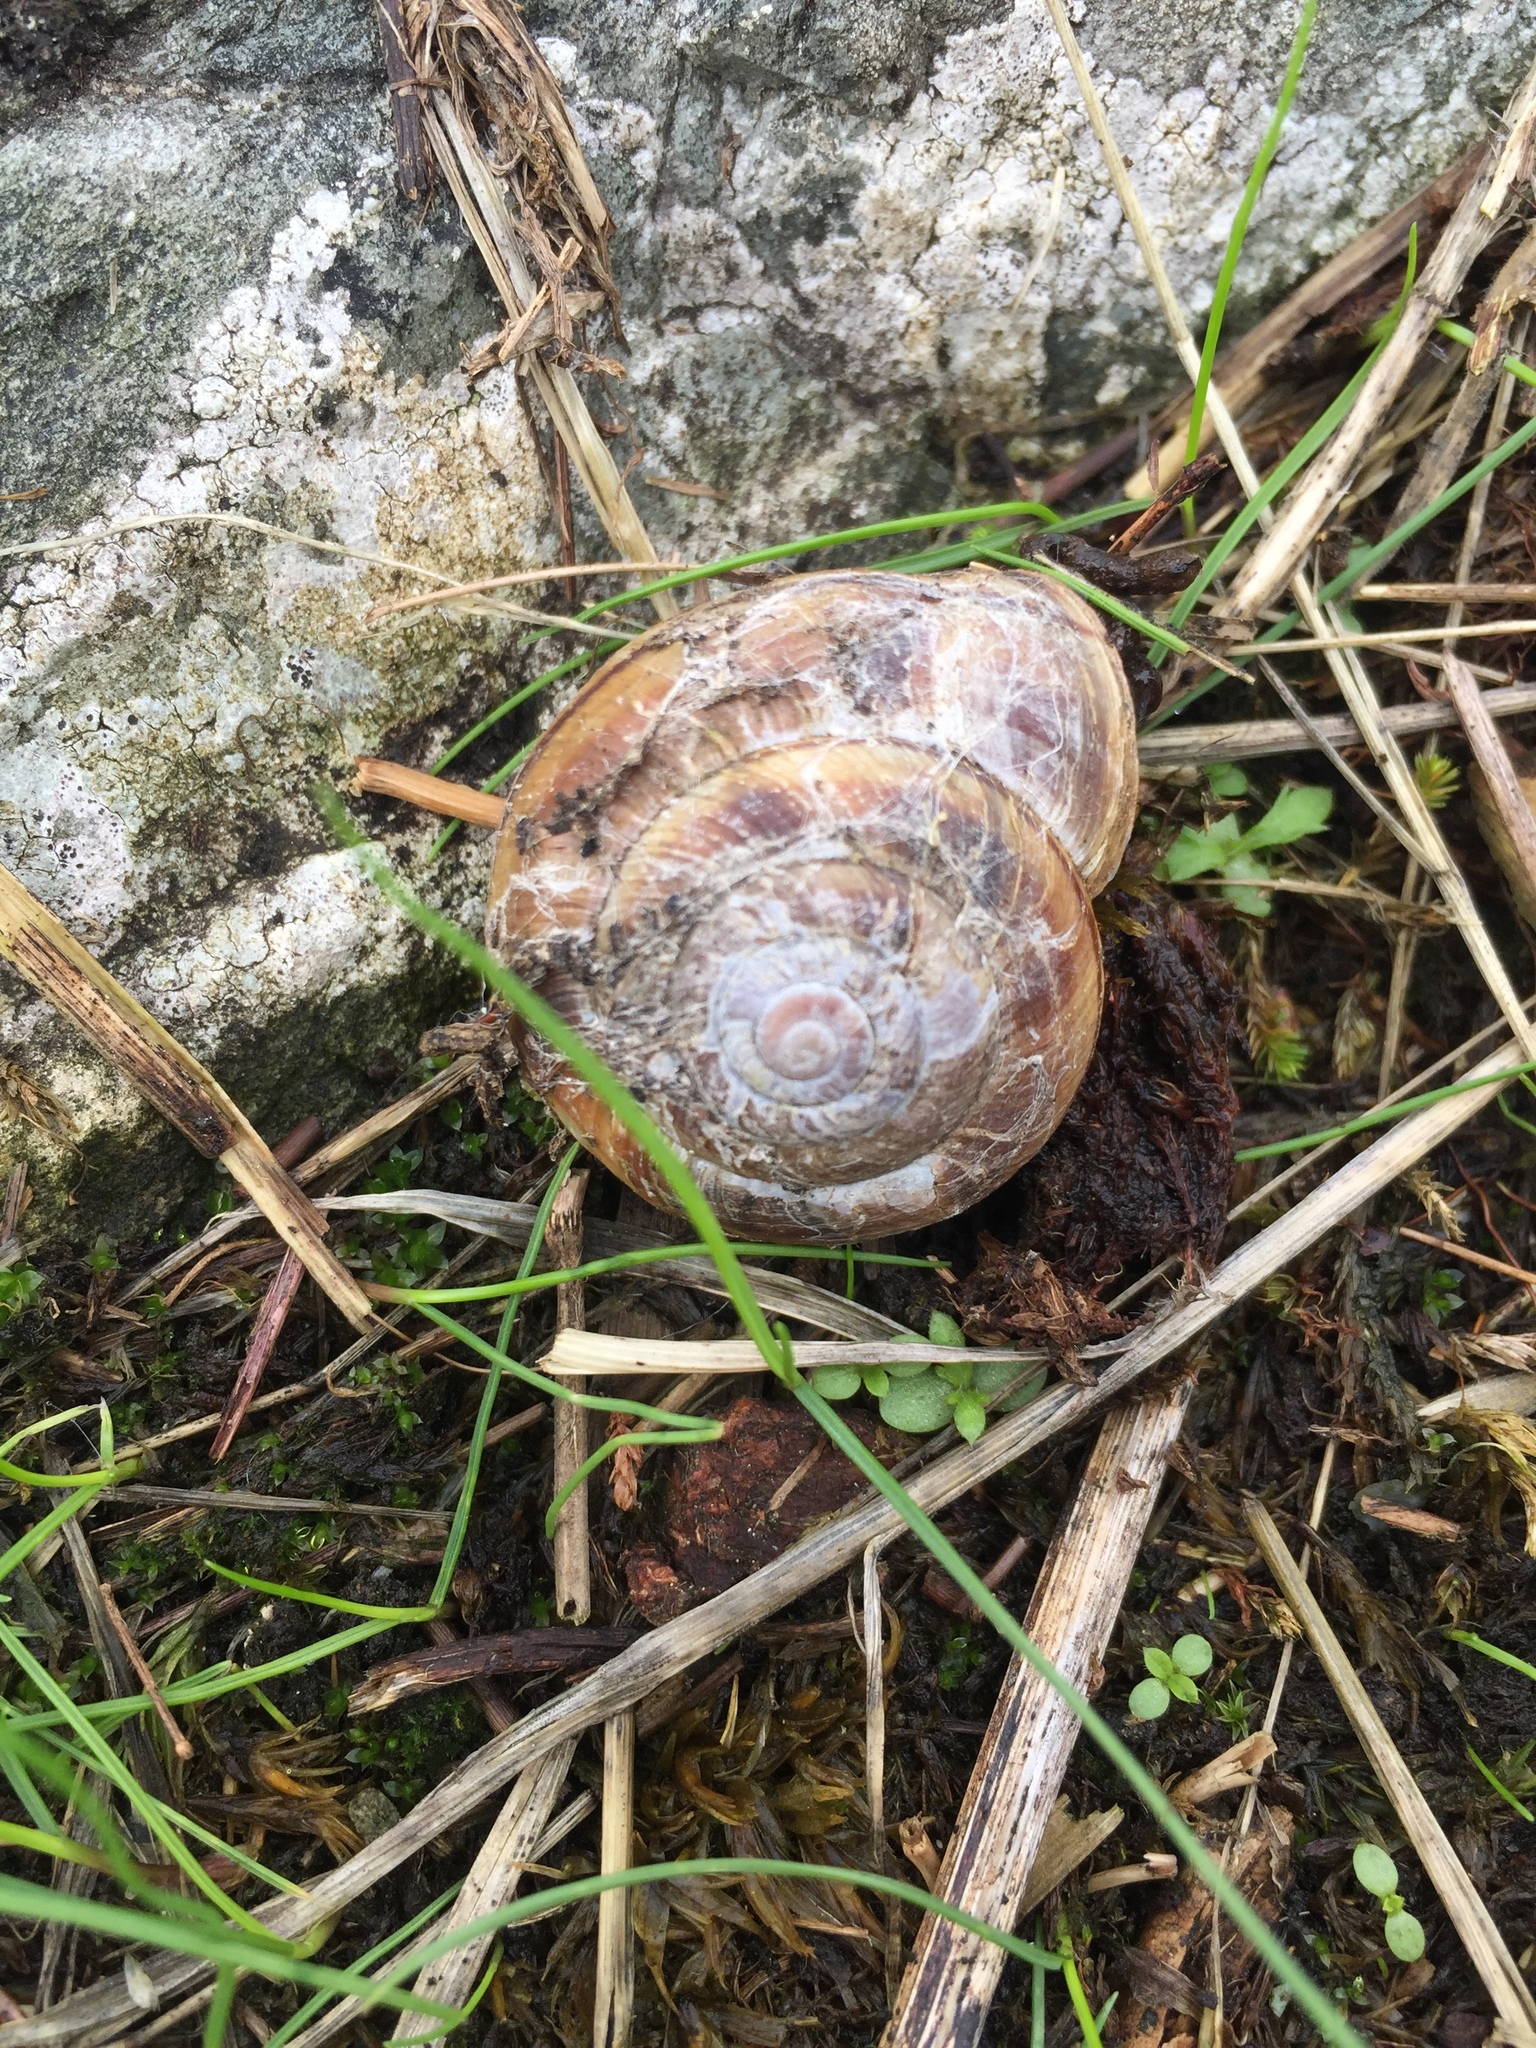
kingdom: Animalia
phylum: Mollusca
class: Gastropoda
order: Stylommatophora
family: Xanthonychidae
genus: Monadenia
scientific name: Monadenia fidelis
